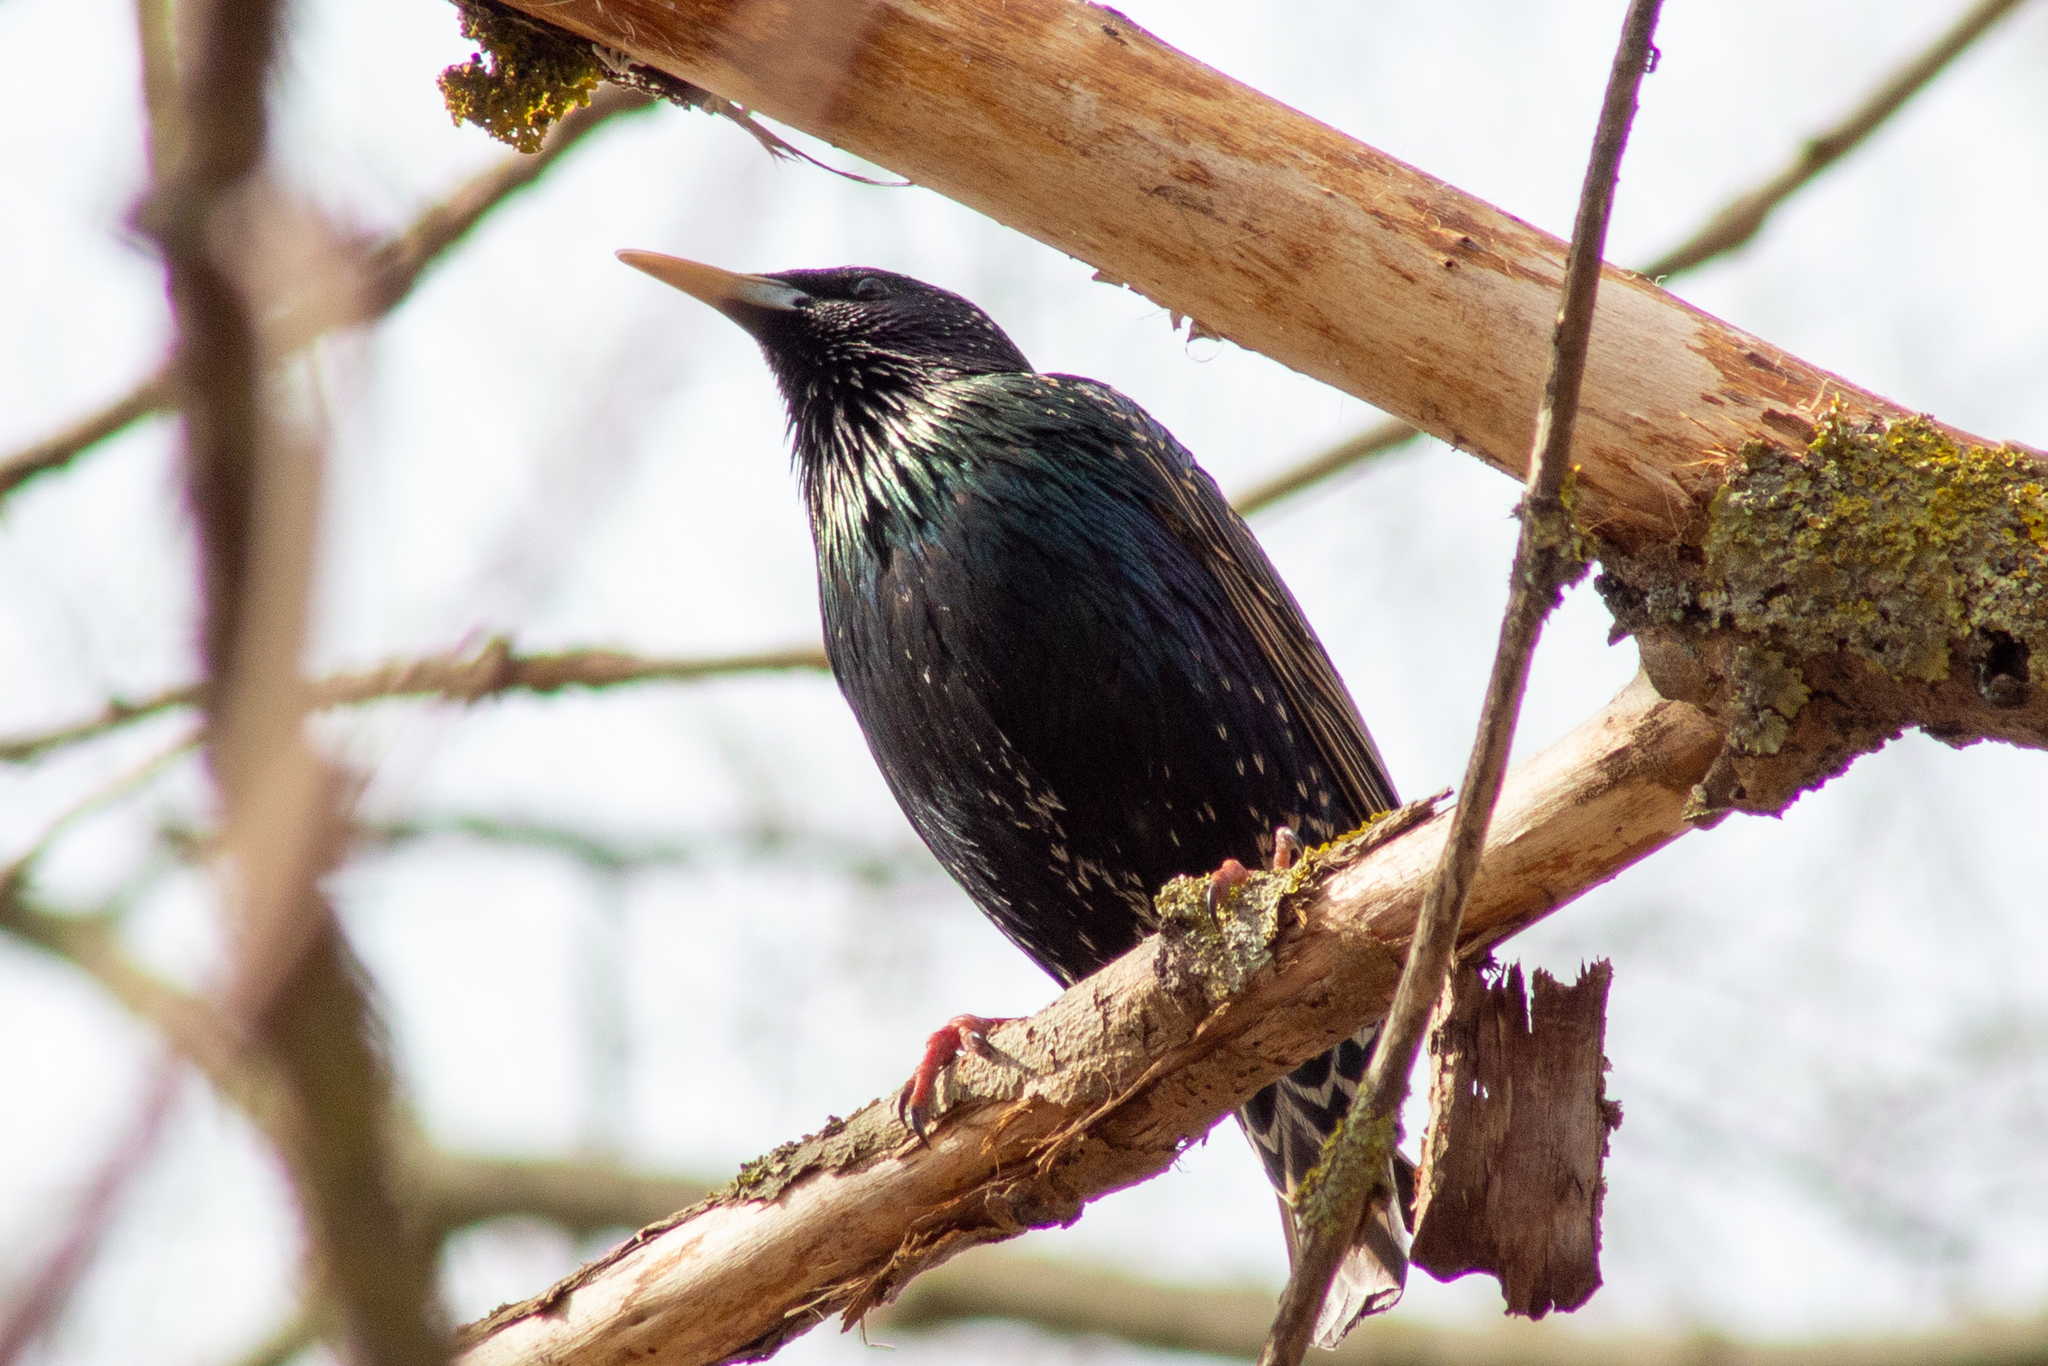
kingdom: Animalia
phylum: Chordata
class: Aves
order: Passeriformes
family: Sturnidae
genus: Sturnus
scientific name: Sturnus vulgaris
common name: Common starling
